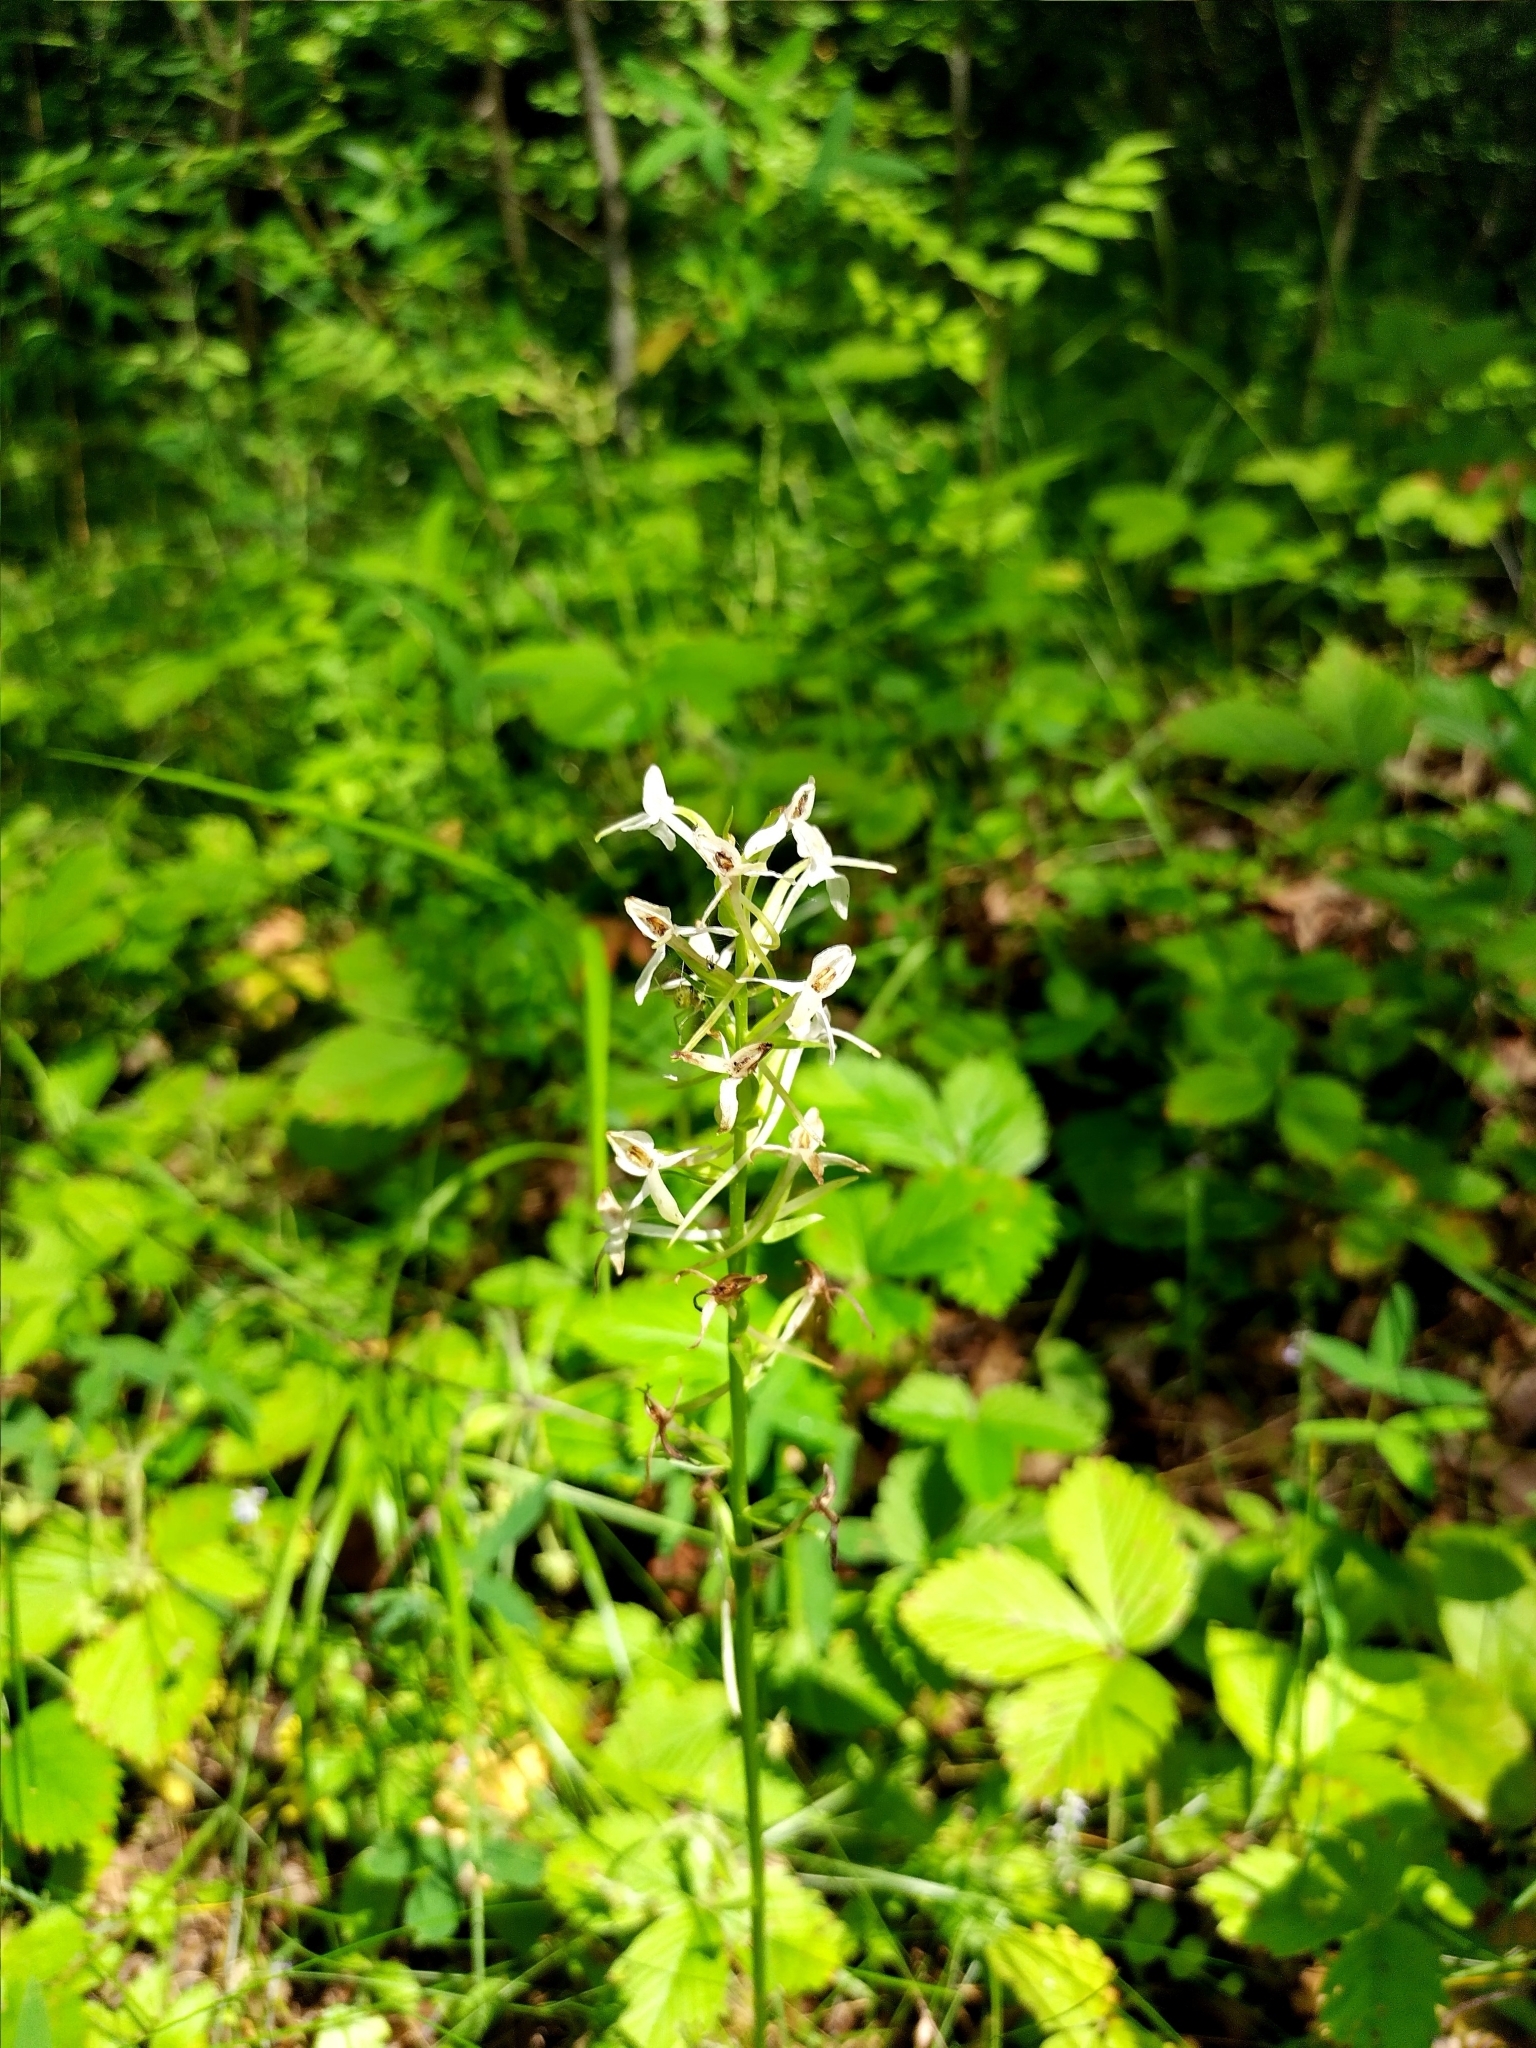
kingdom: Plantae
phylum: Tracheophyta
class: Liliopsida
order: Asparagales
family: Orchidaceae
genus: Platanthera
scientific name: Platanthera bifolia
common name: Lesser butterfly-orchid
